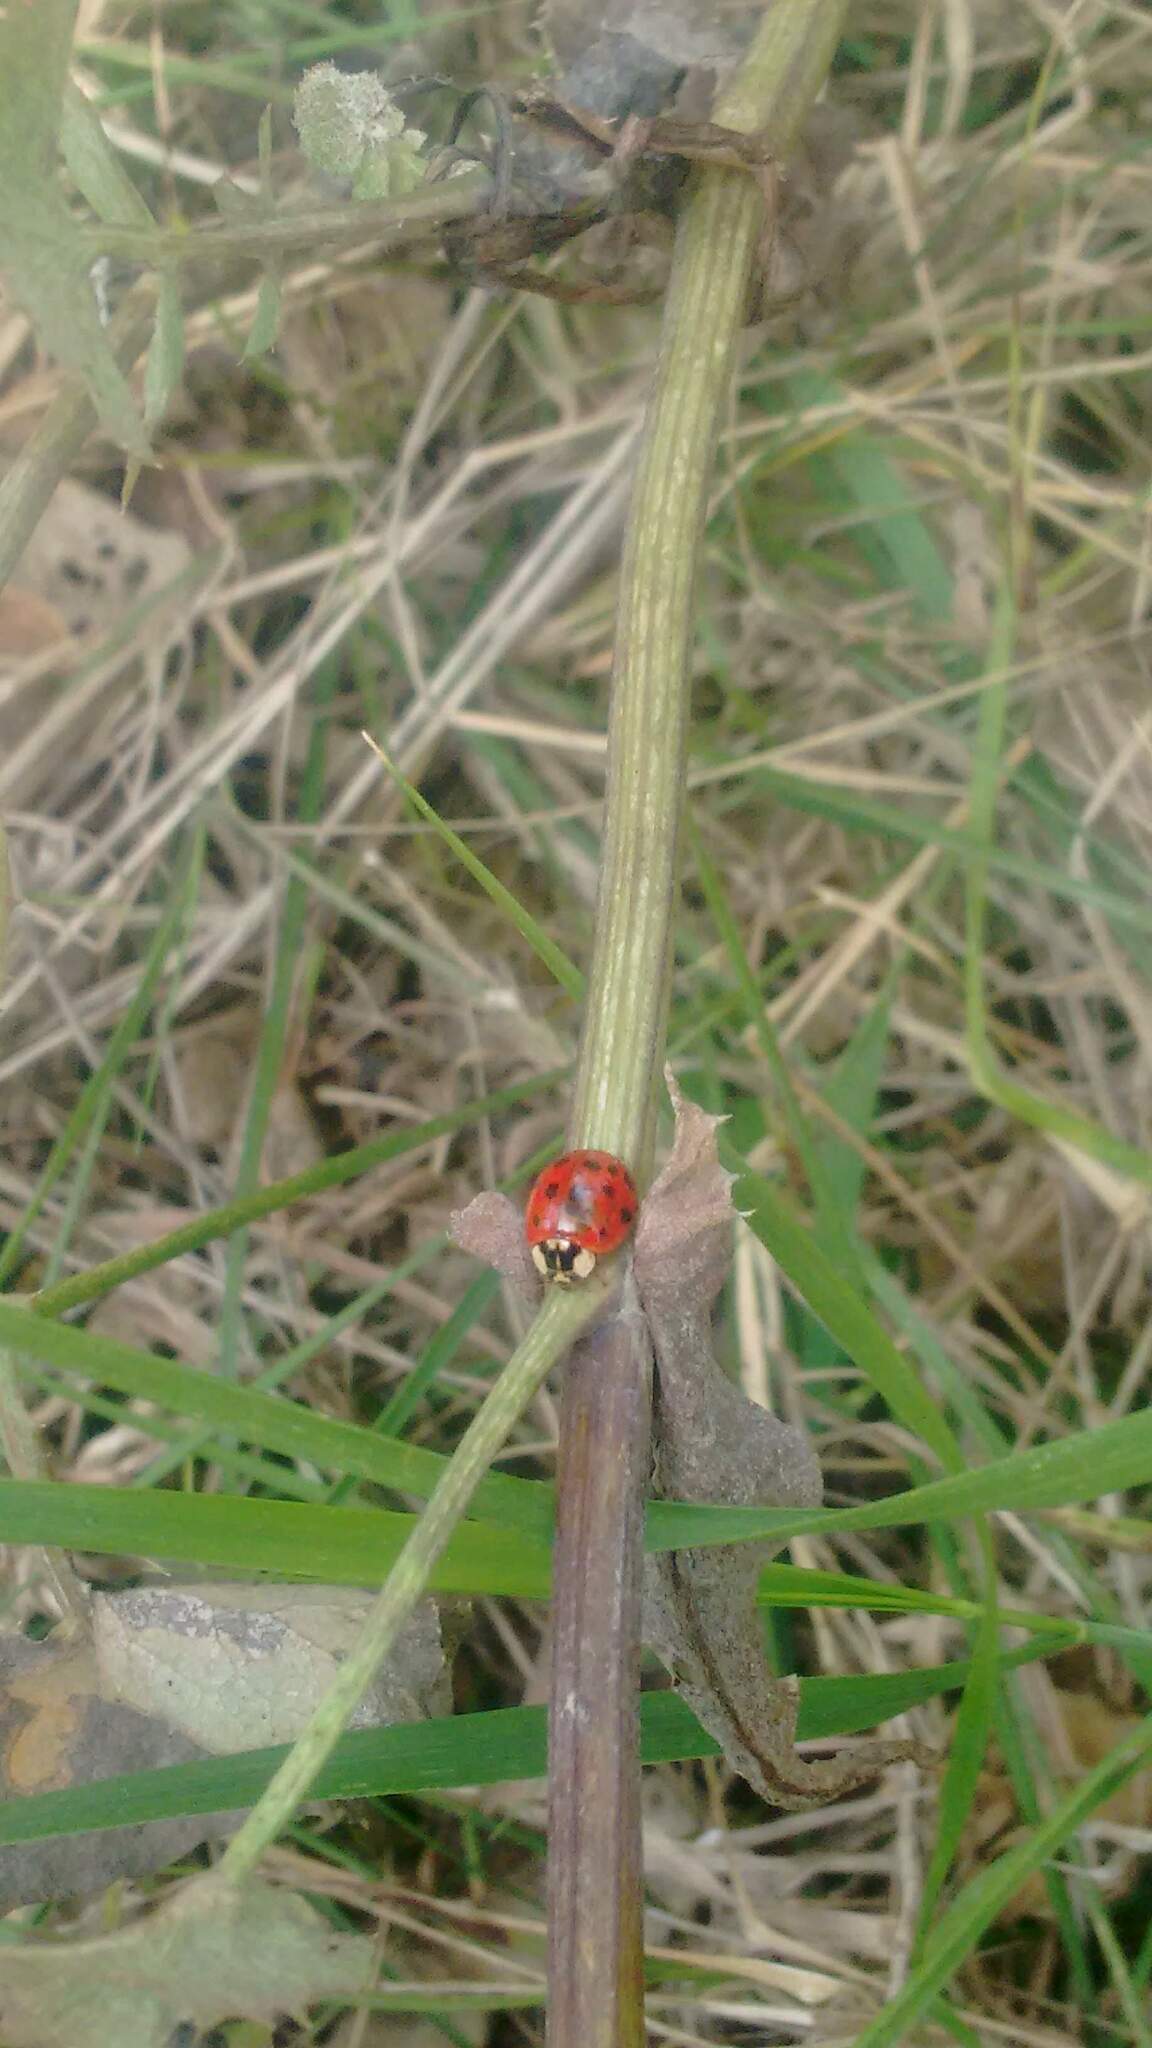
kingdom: Animalia
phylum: Arthropoda
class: Insecta
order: Coleoptera
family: Coccinellidae
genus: Harmonia
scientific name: Harmonia axyridis
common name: Harlequin ladybird
